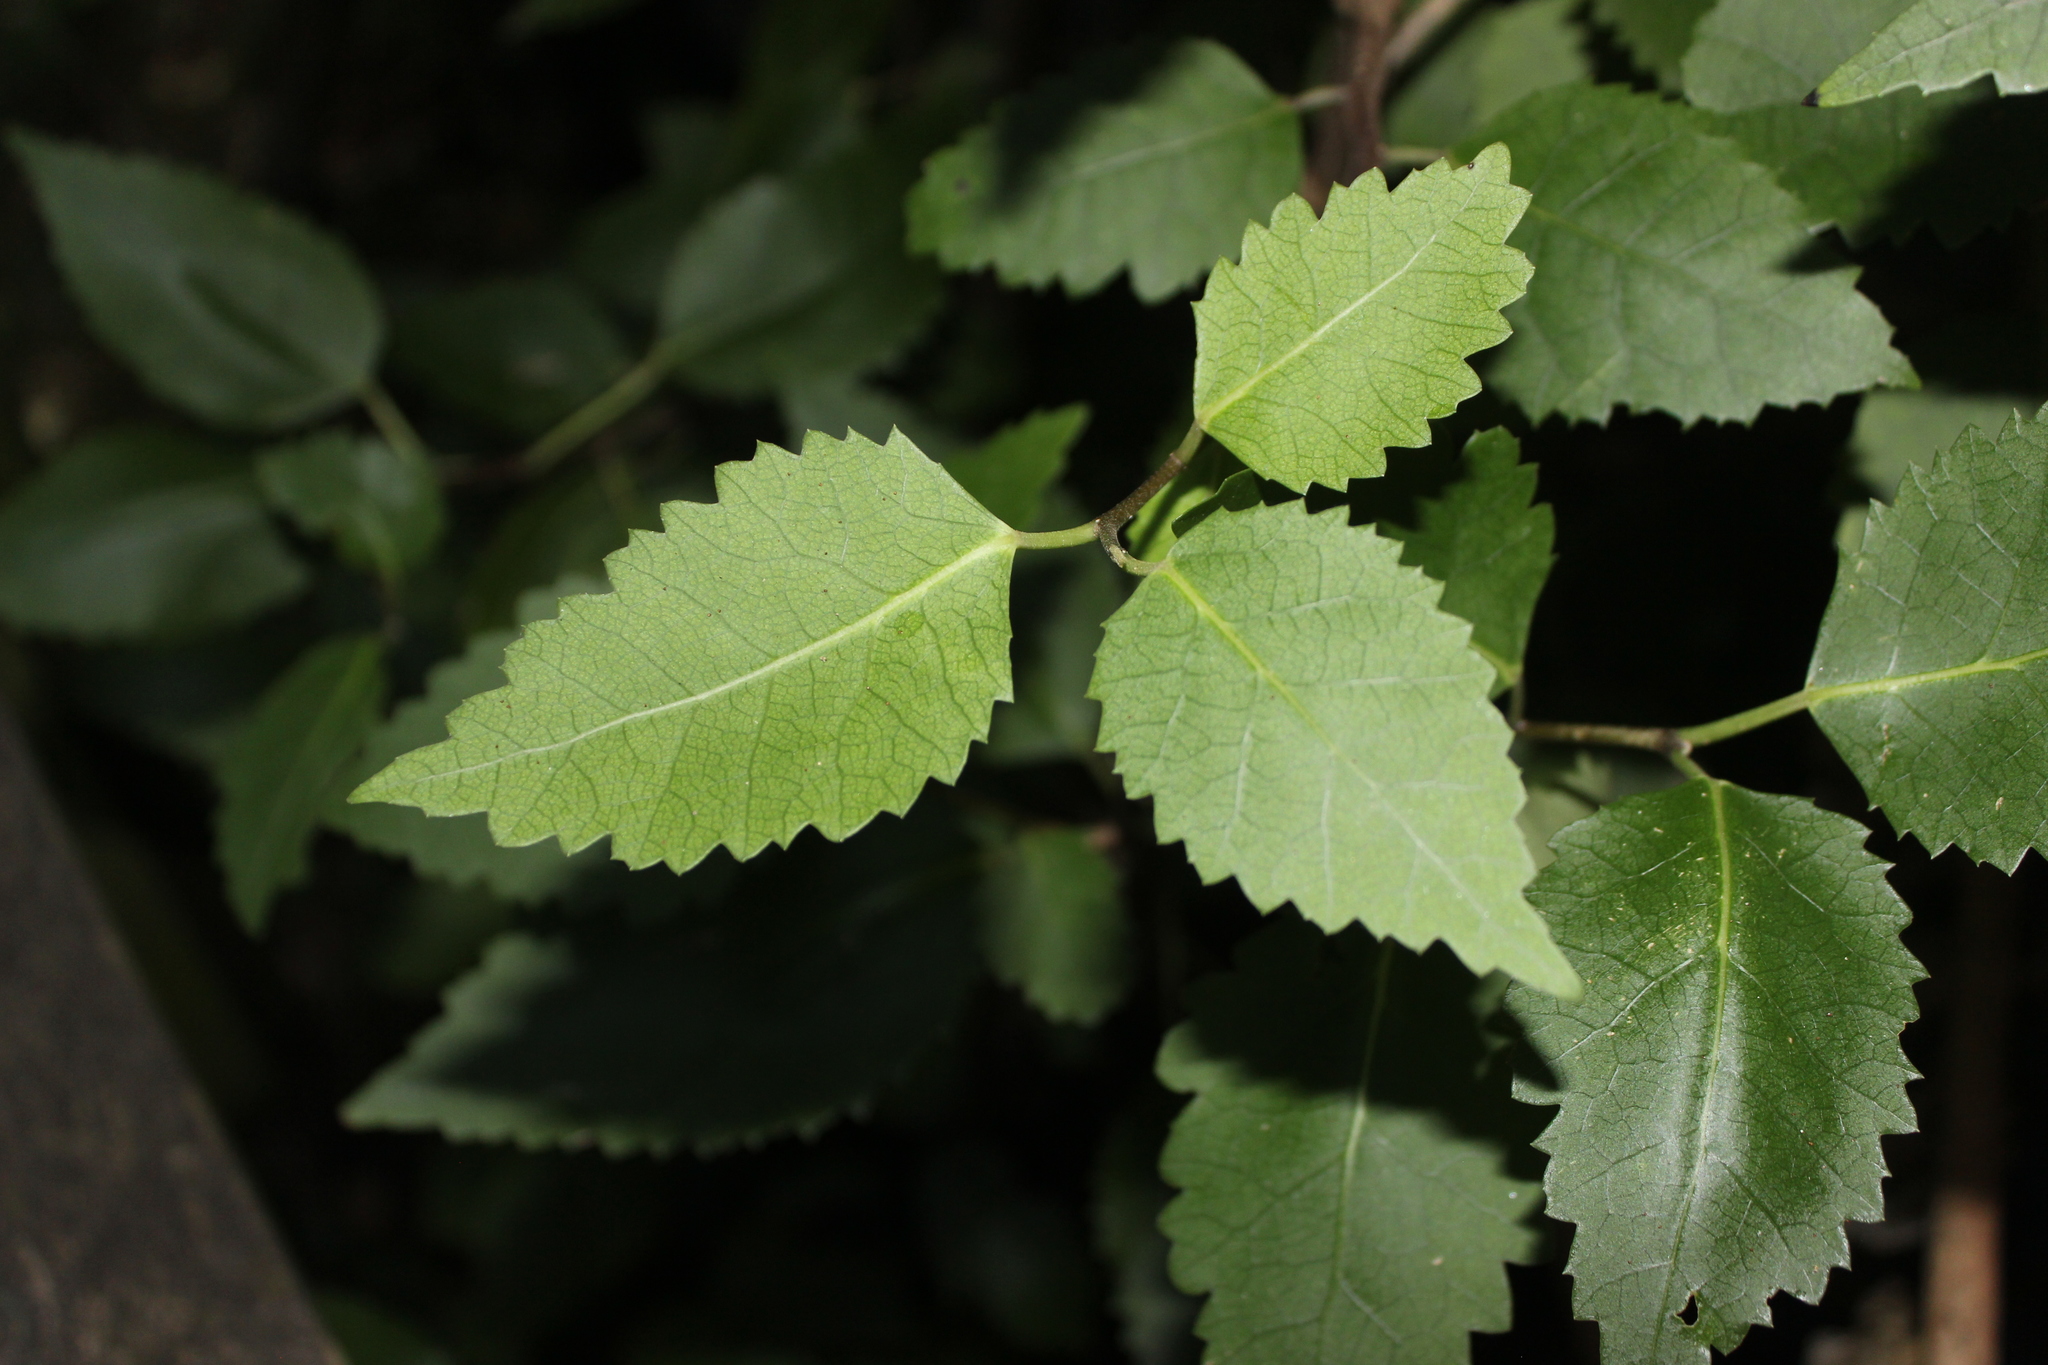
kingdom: Plantae
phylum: Tracheophyta
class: Magnoliopsida
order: Malvales
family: Malvaceae
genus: Hoheria
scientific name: Hoheria populnea
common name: Lacebark
